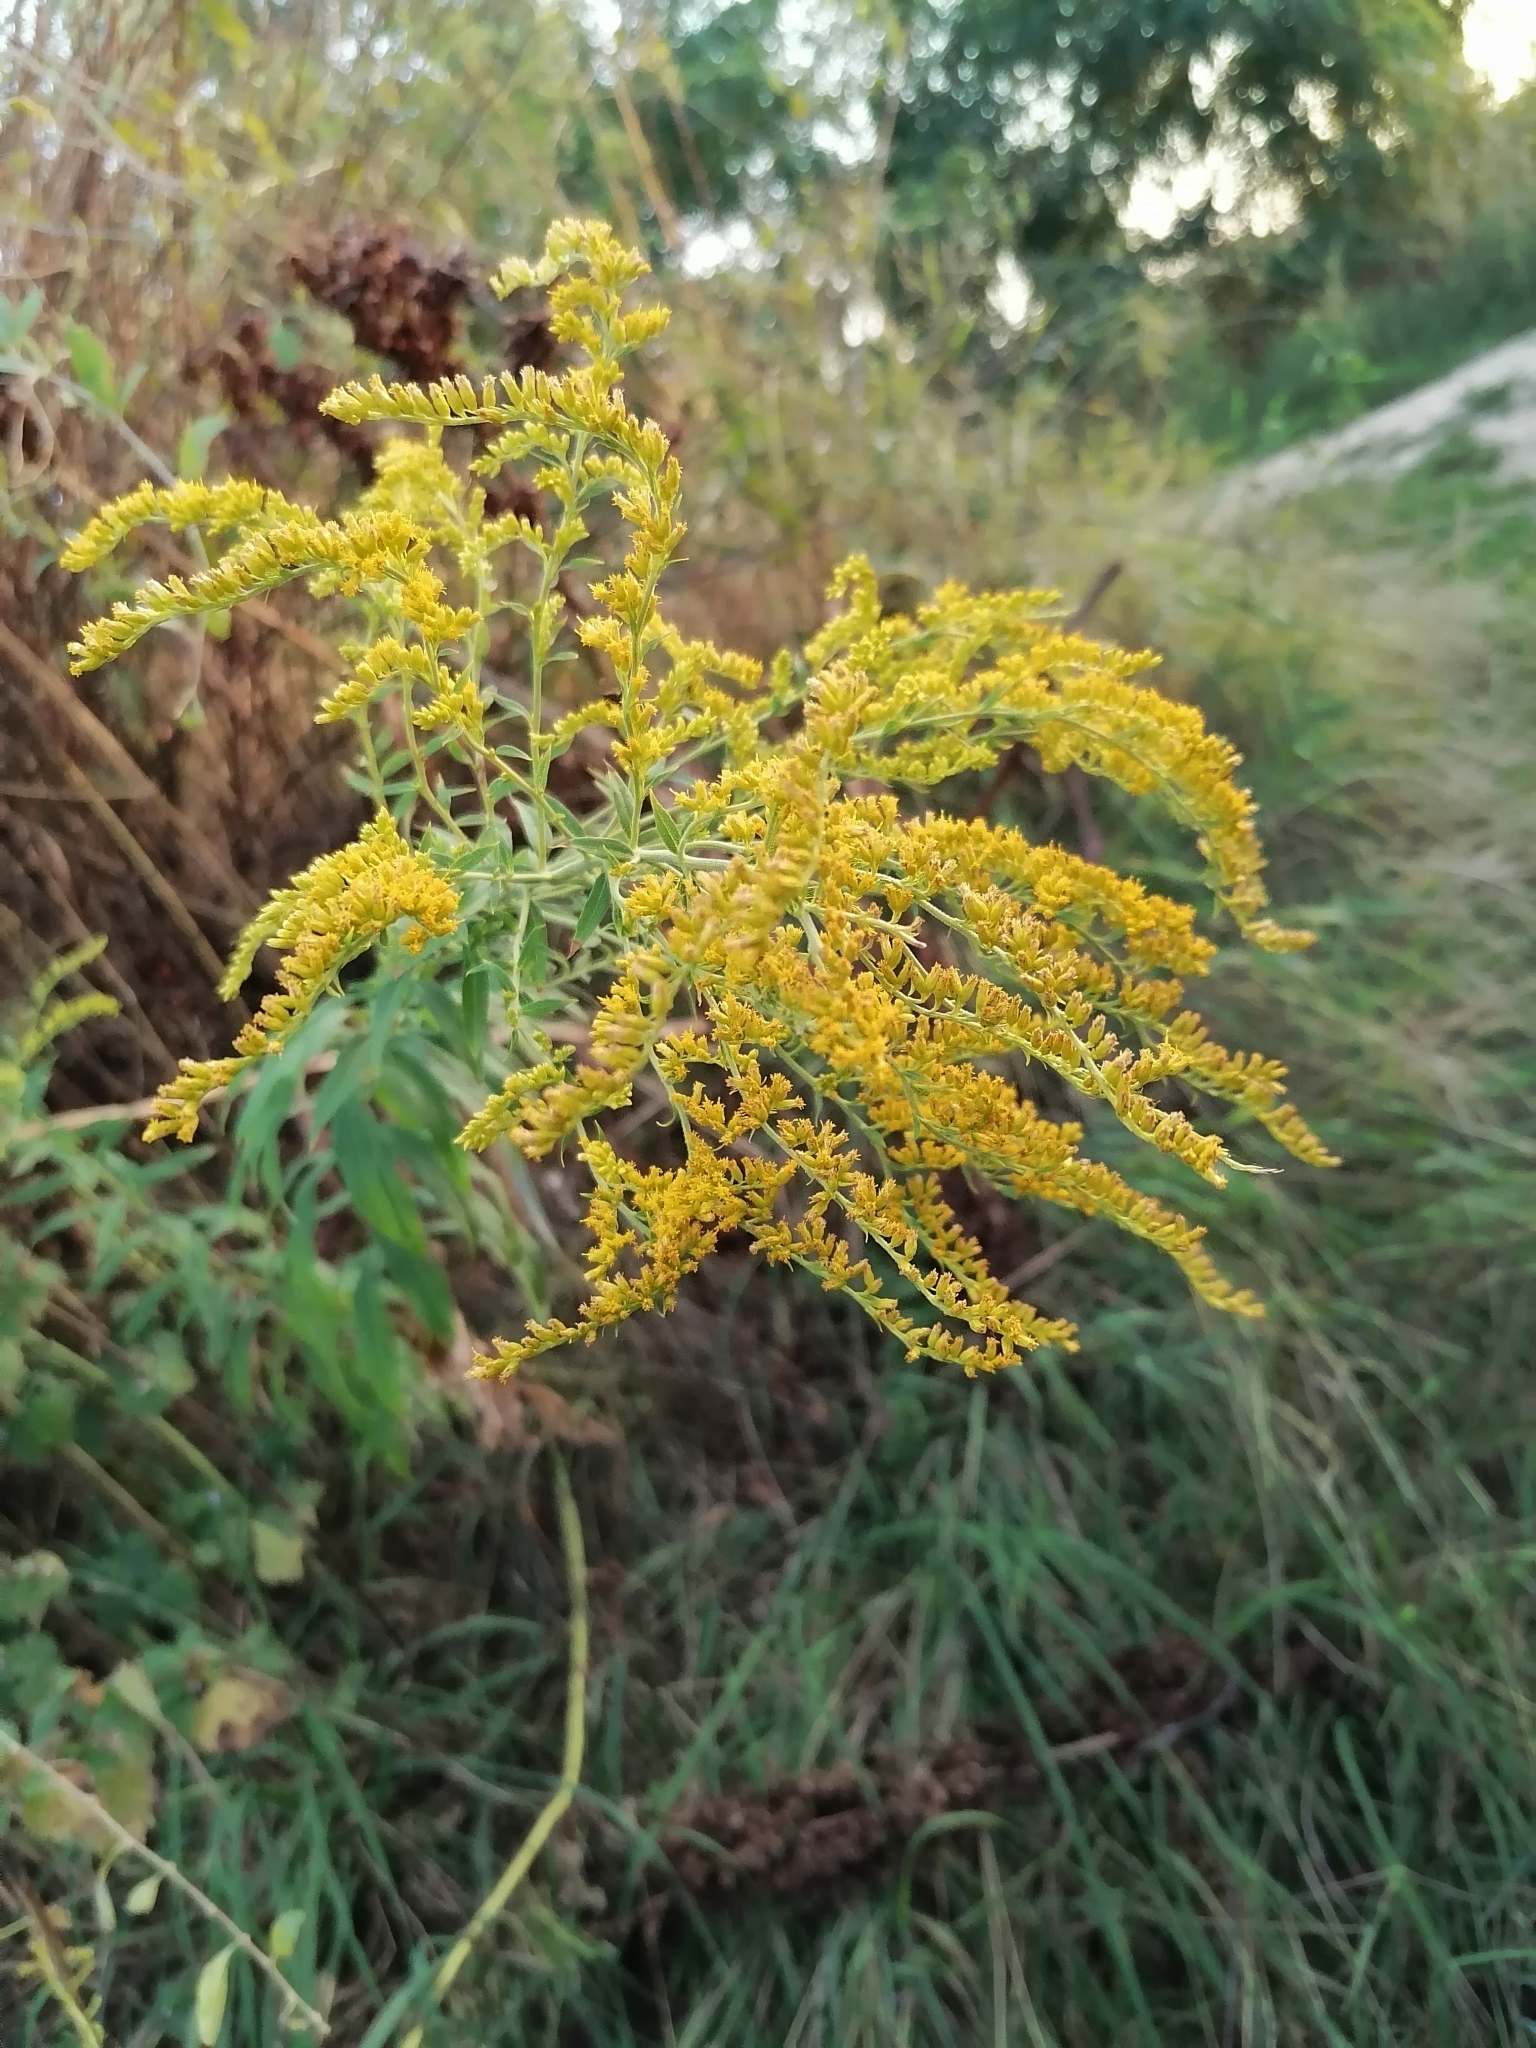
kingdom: Plantae
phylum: Tracheophyta
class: Magnoliopsida
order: Asterales
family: Asteraceae
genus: Solidago
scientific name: Solidago canadensis
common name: Canada goldenrod
